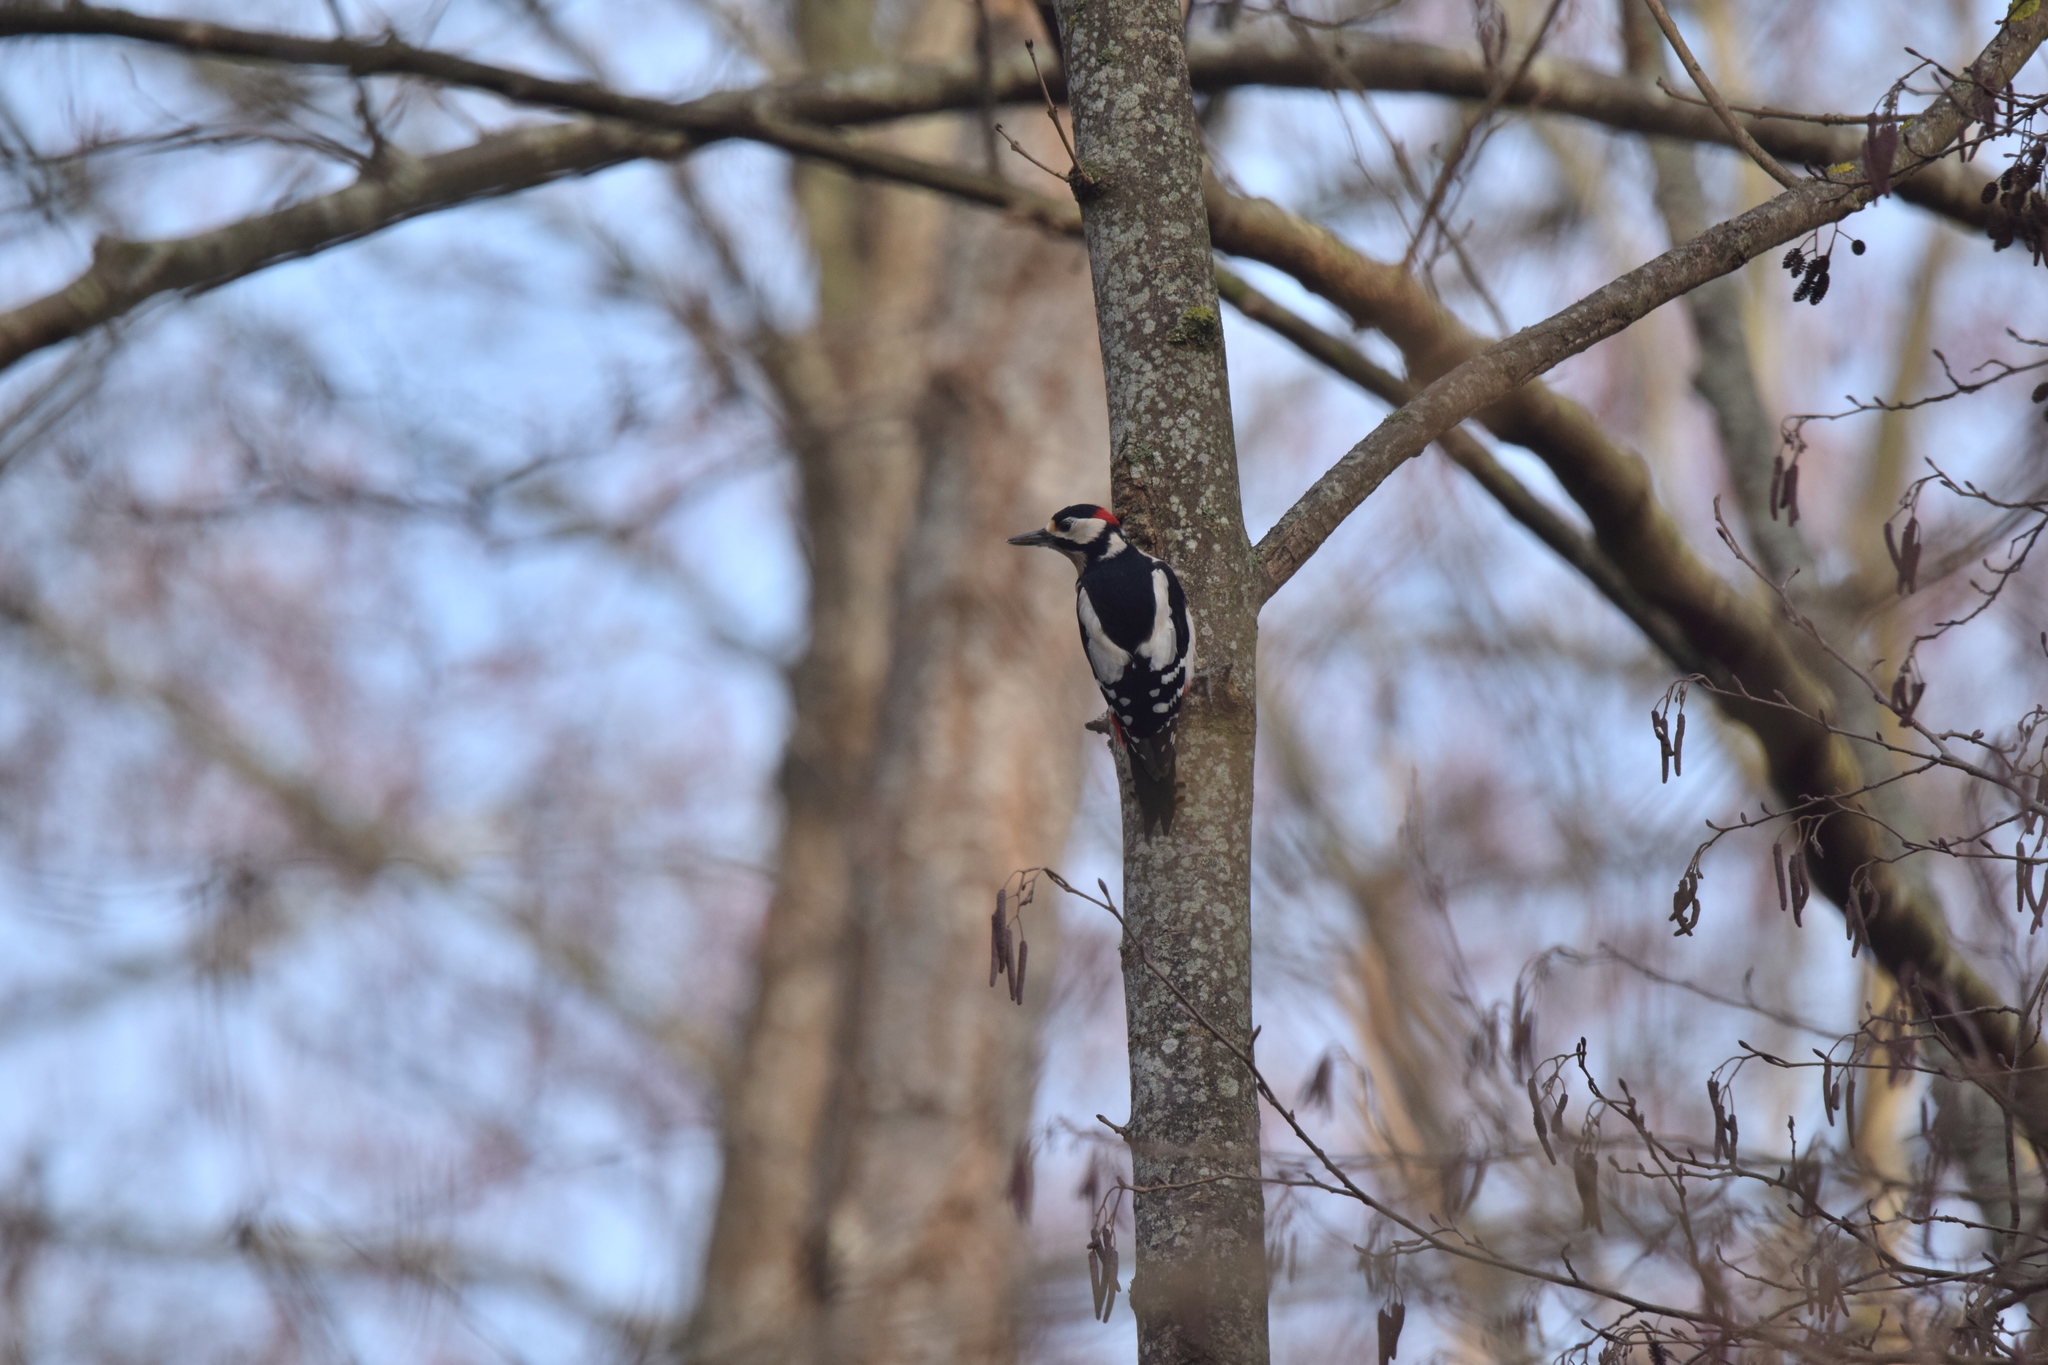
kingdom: Animalia
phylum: Chordata
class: Aves
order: Piciformes
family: Picidae
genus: Dendrocopos
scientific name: Dendrocopos major
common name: Great spotted woodpecker
